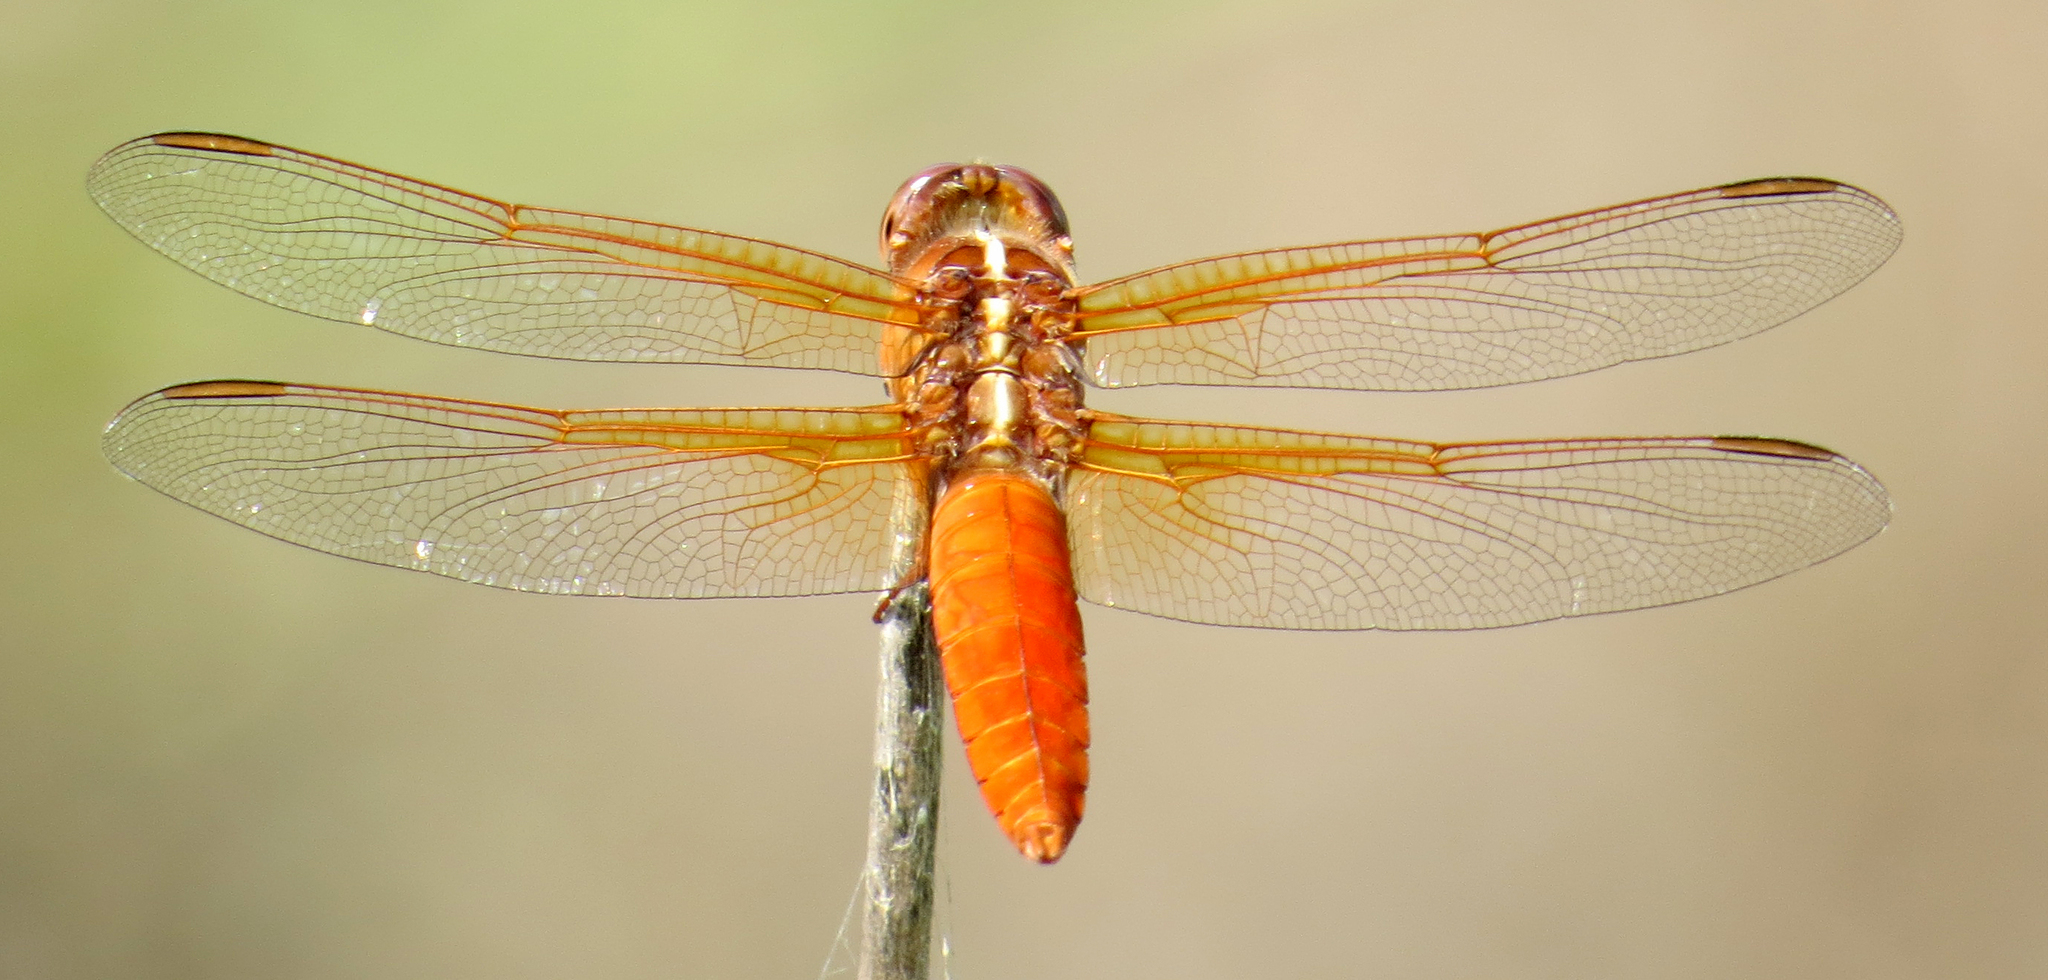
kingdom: Animalia
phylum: Arthropoda
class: Insecta
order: Odonata
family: Libellulidae
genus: Libellula
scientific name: Libellula croceipennis
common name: Neon skimmer
